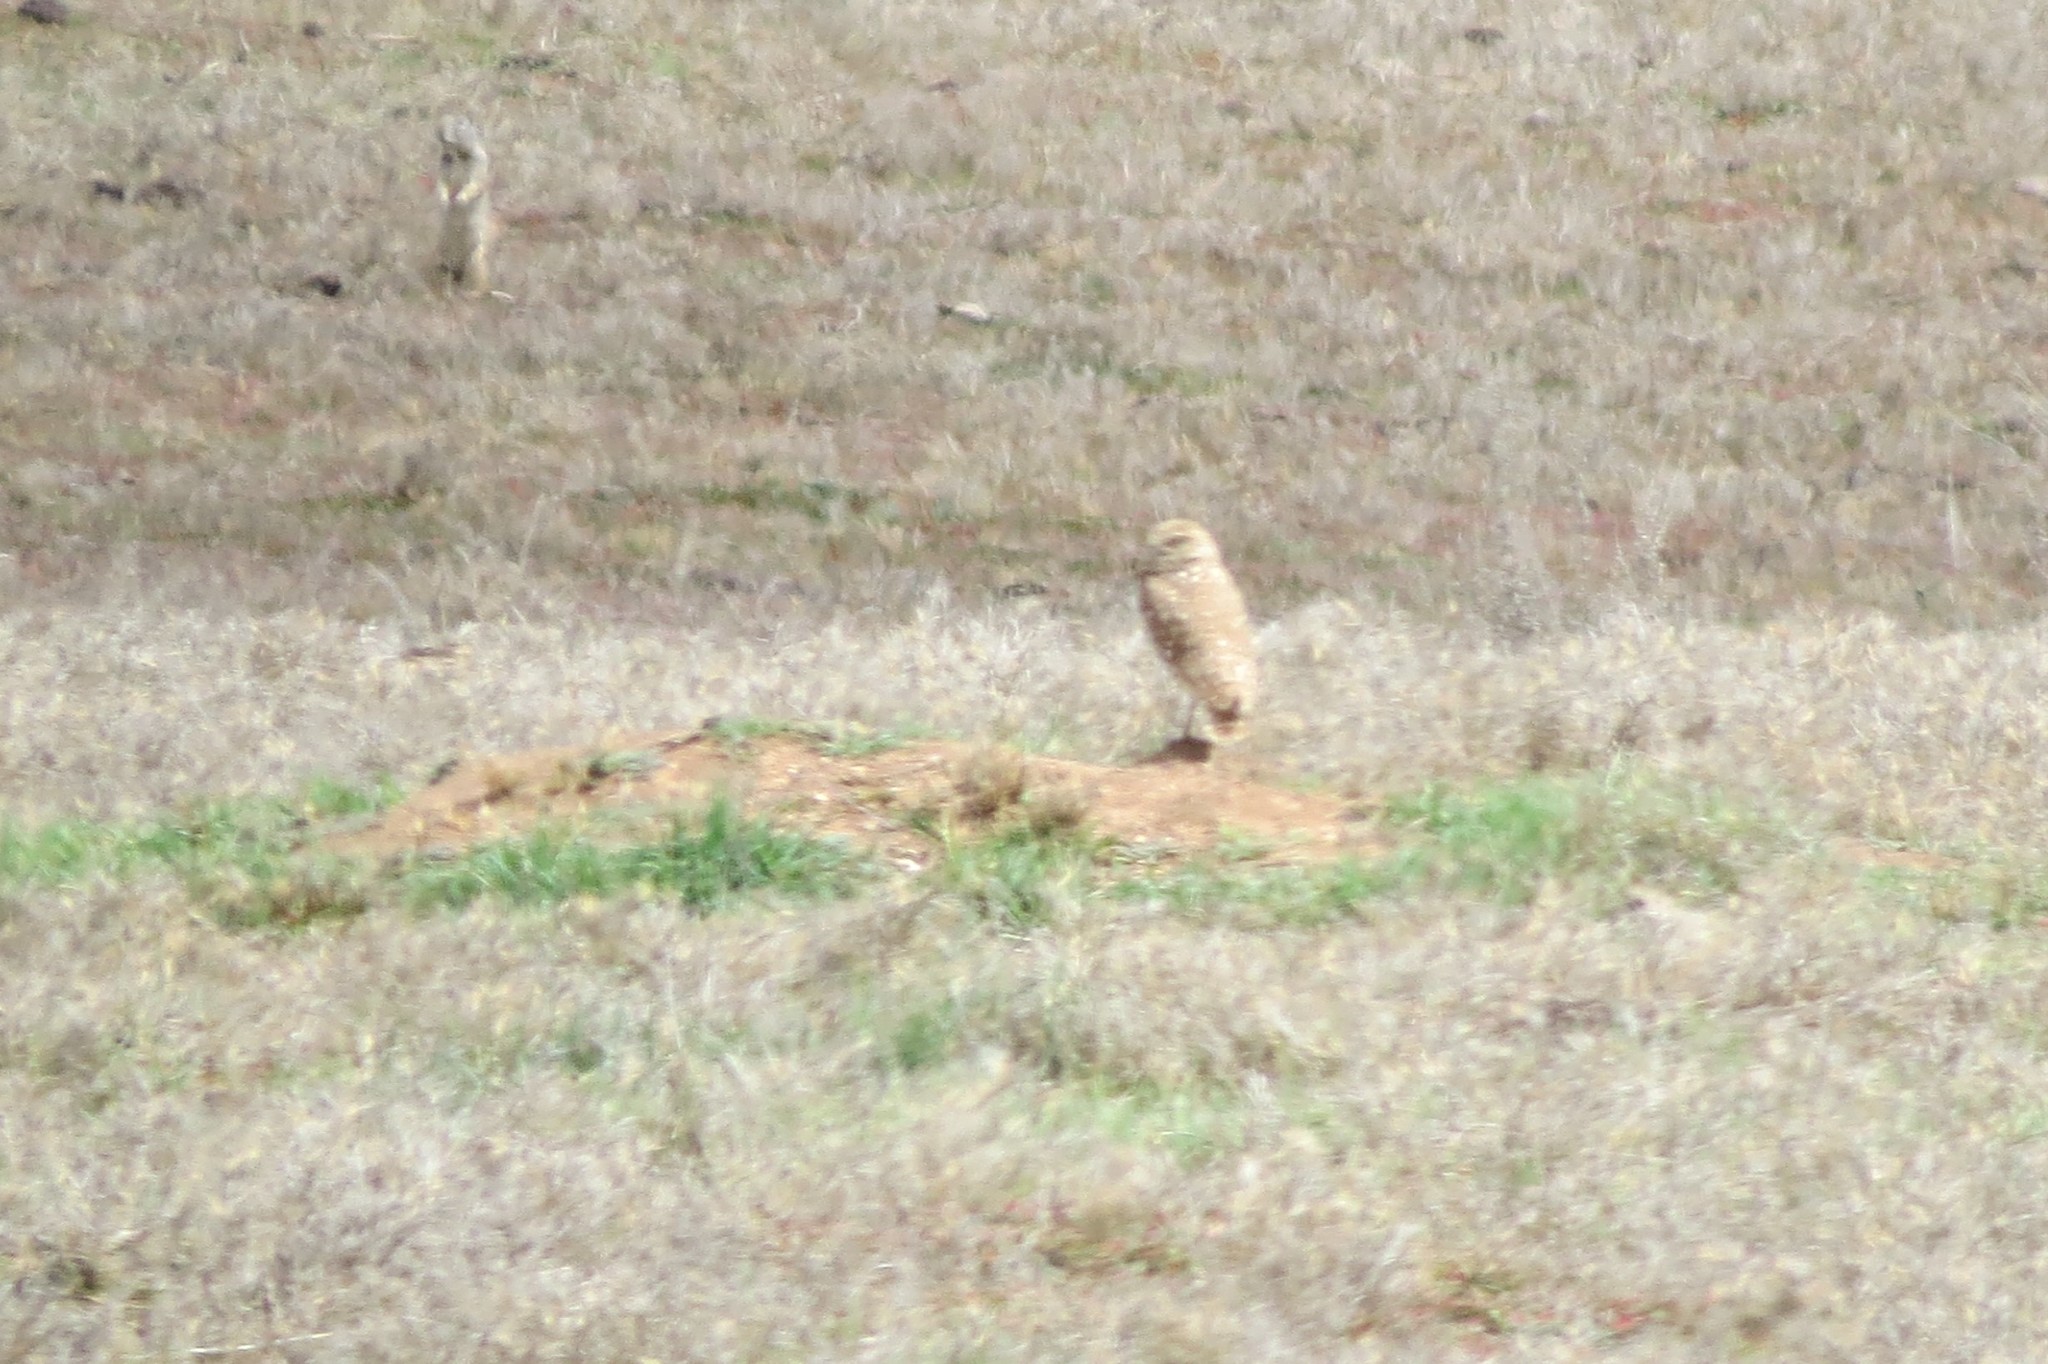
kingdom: Animalia
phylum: Chordata
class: Aves
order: Strigiformes
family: Strigidae
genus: Athene
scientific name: Athene cunicularia
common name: Burrowing owl
